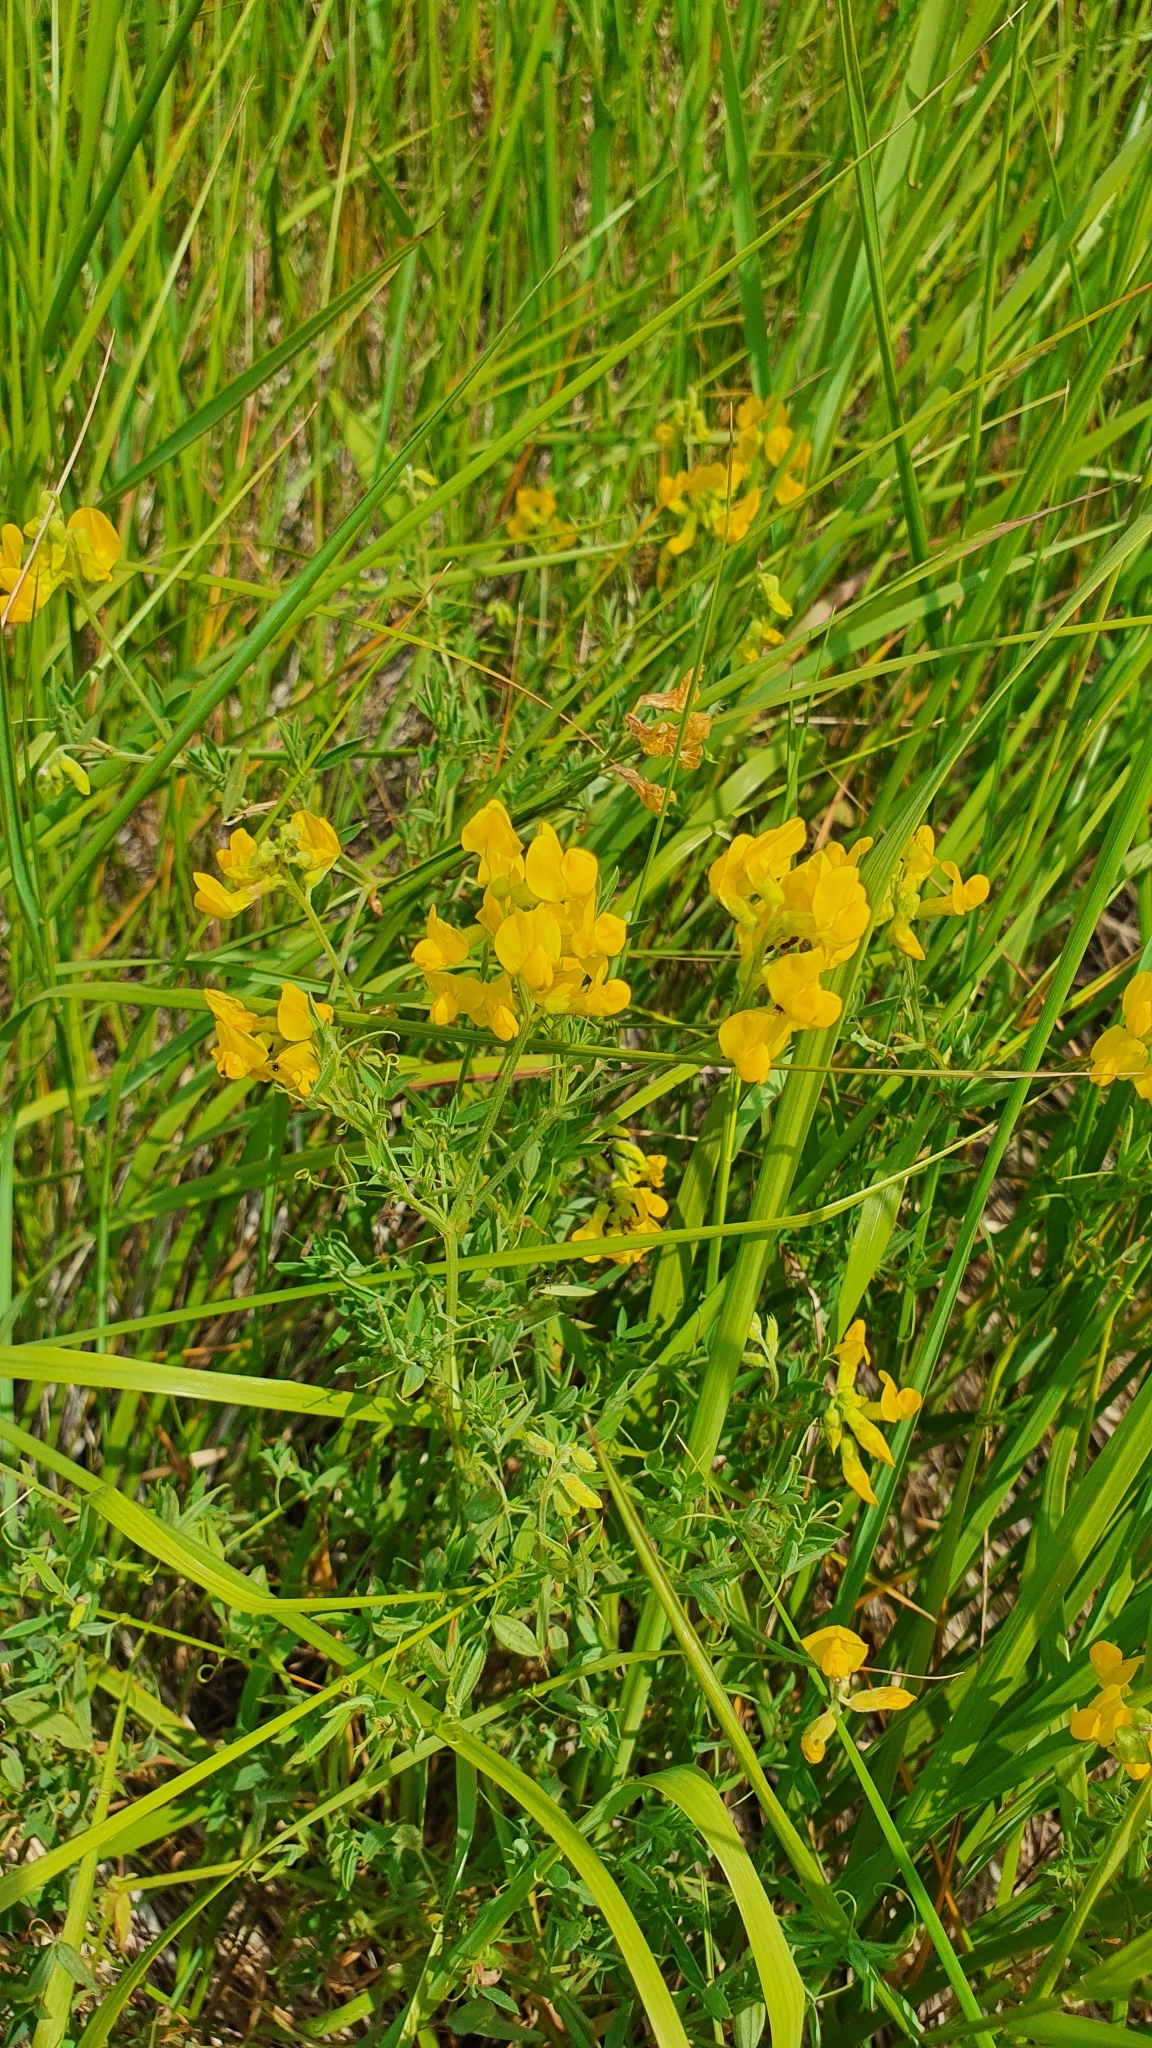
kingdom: Plantae
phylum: Tracheophyta
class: Magnoliopsida
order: Fabales
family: Fabaceae
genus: Lathyrus
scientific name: Lathyrus pratensis
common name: Meadow vetchling
